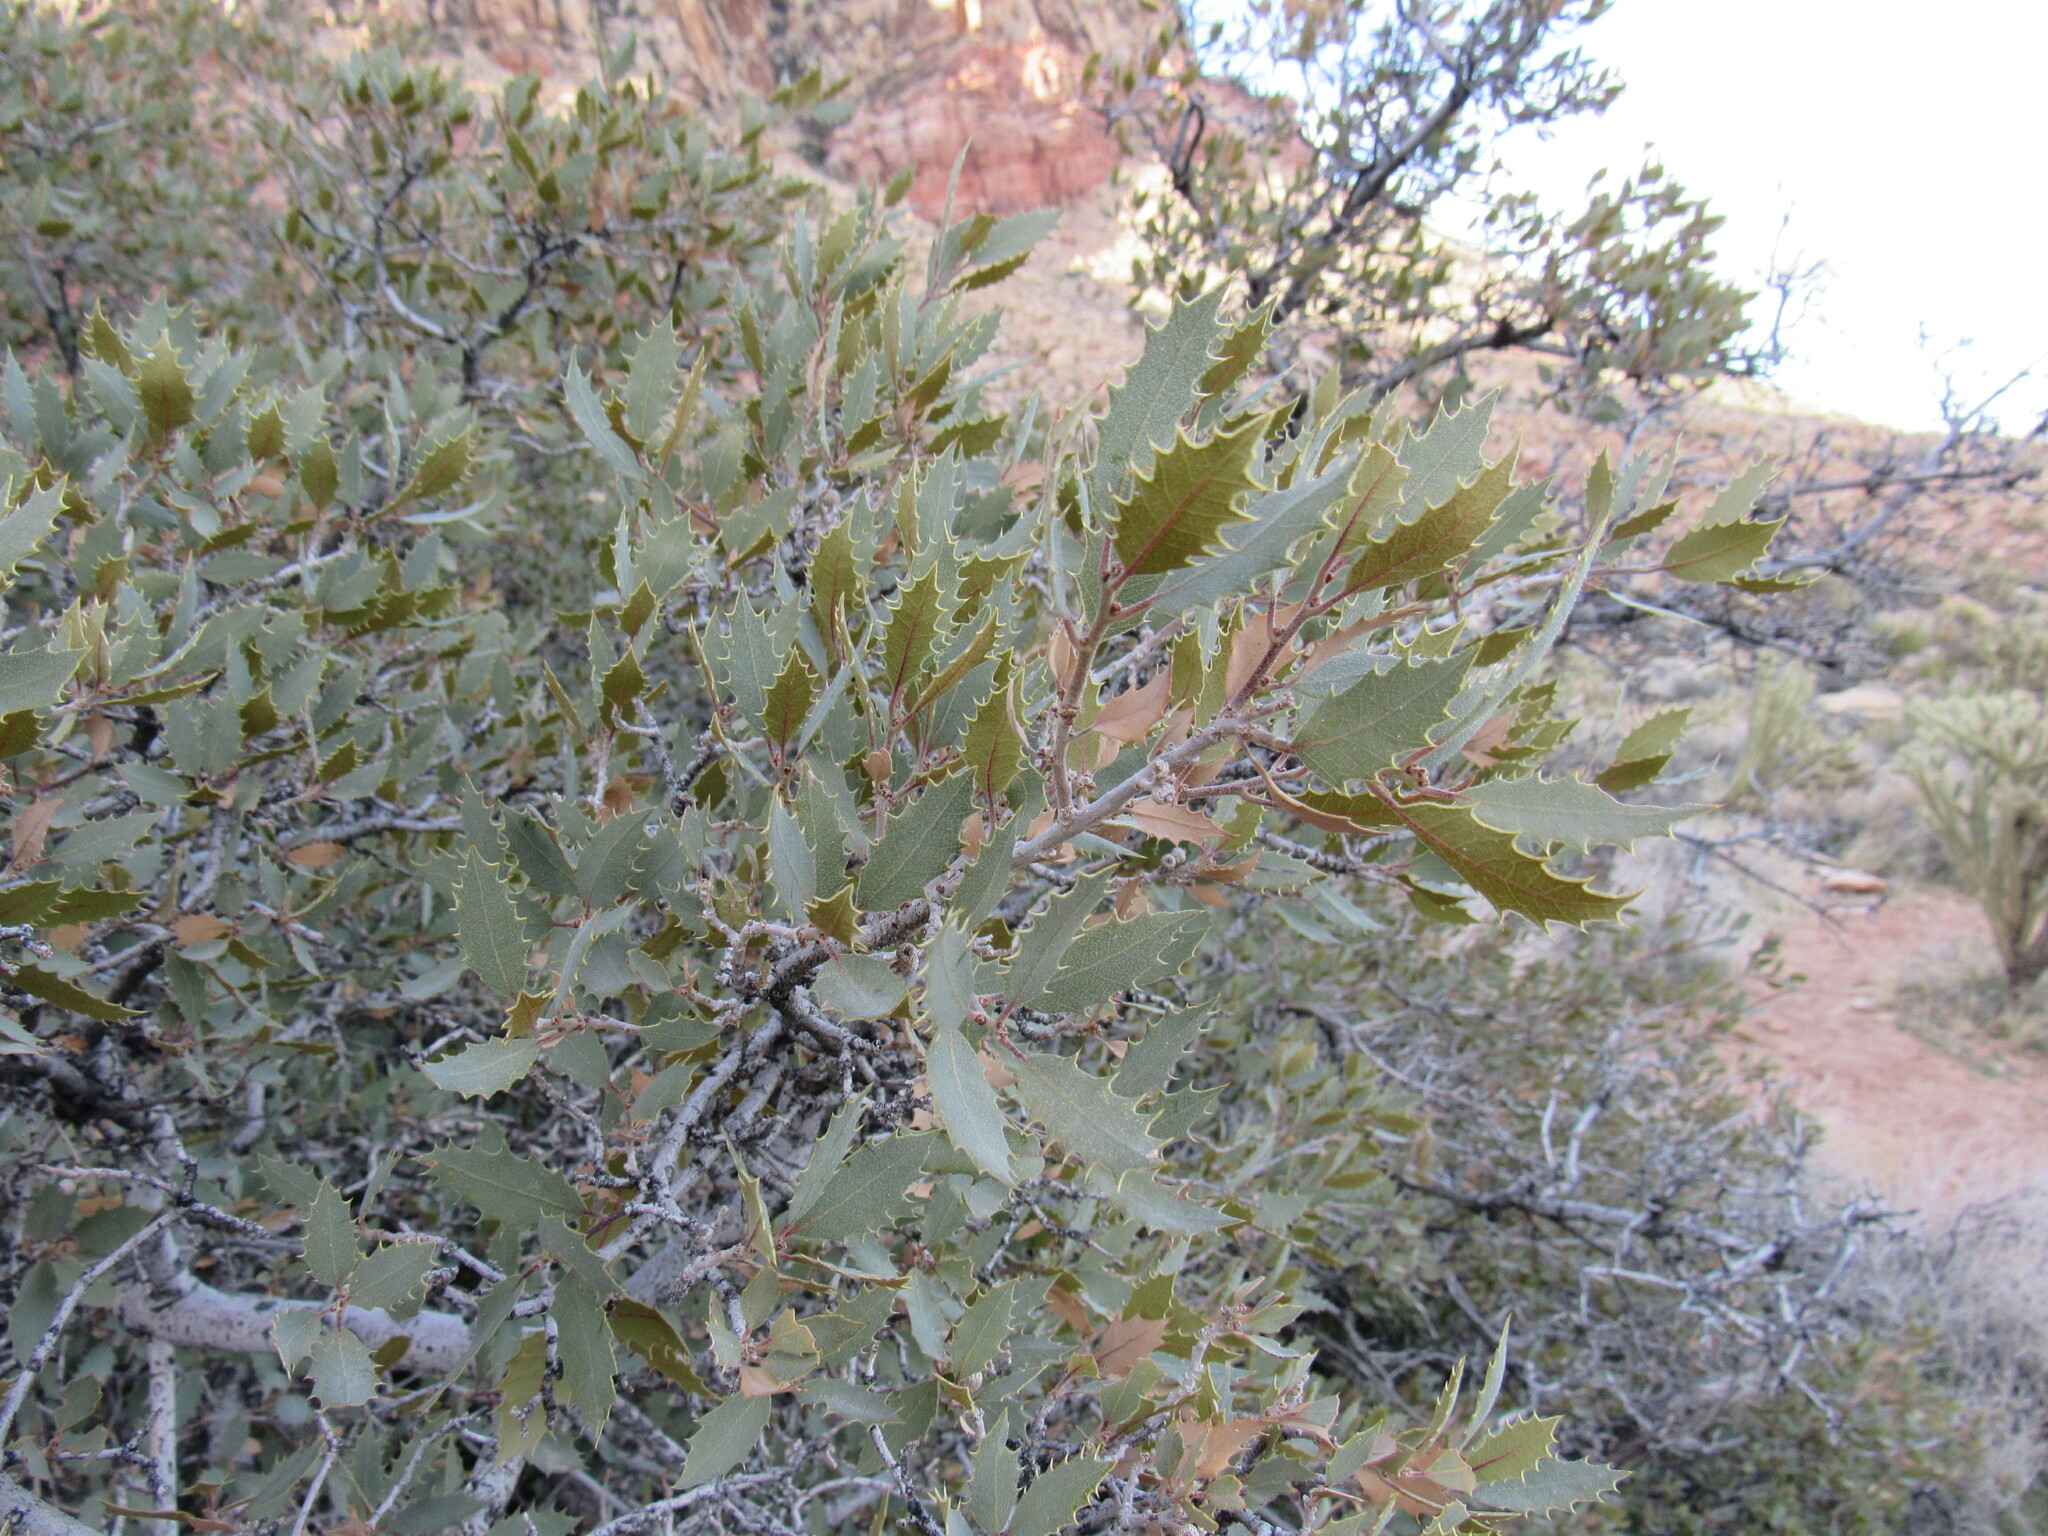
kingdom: Plantae
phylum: Tracheophyta
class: Magnoliopsida
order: Fagales
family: Fagaceae
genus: Quercus
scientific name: Quercus turbinella
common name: Sonoran scrub oak
